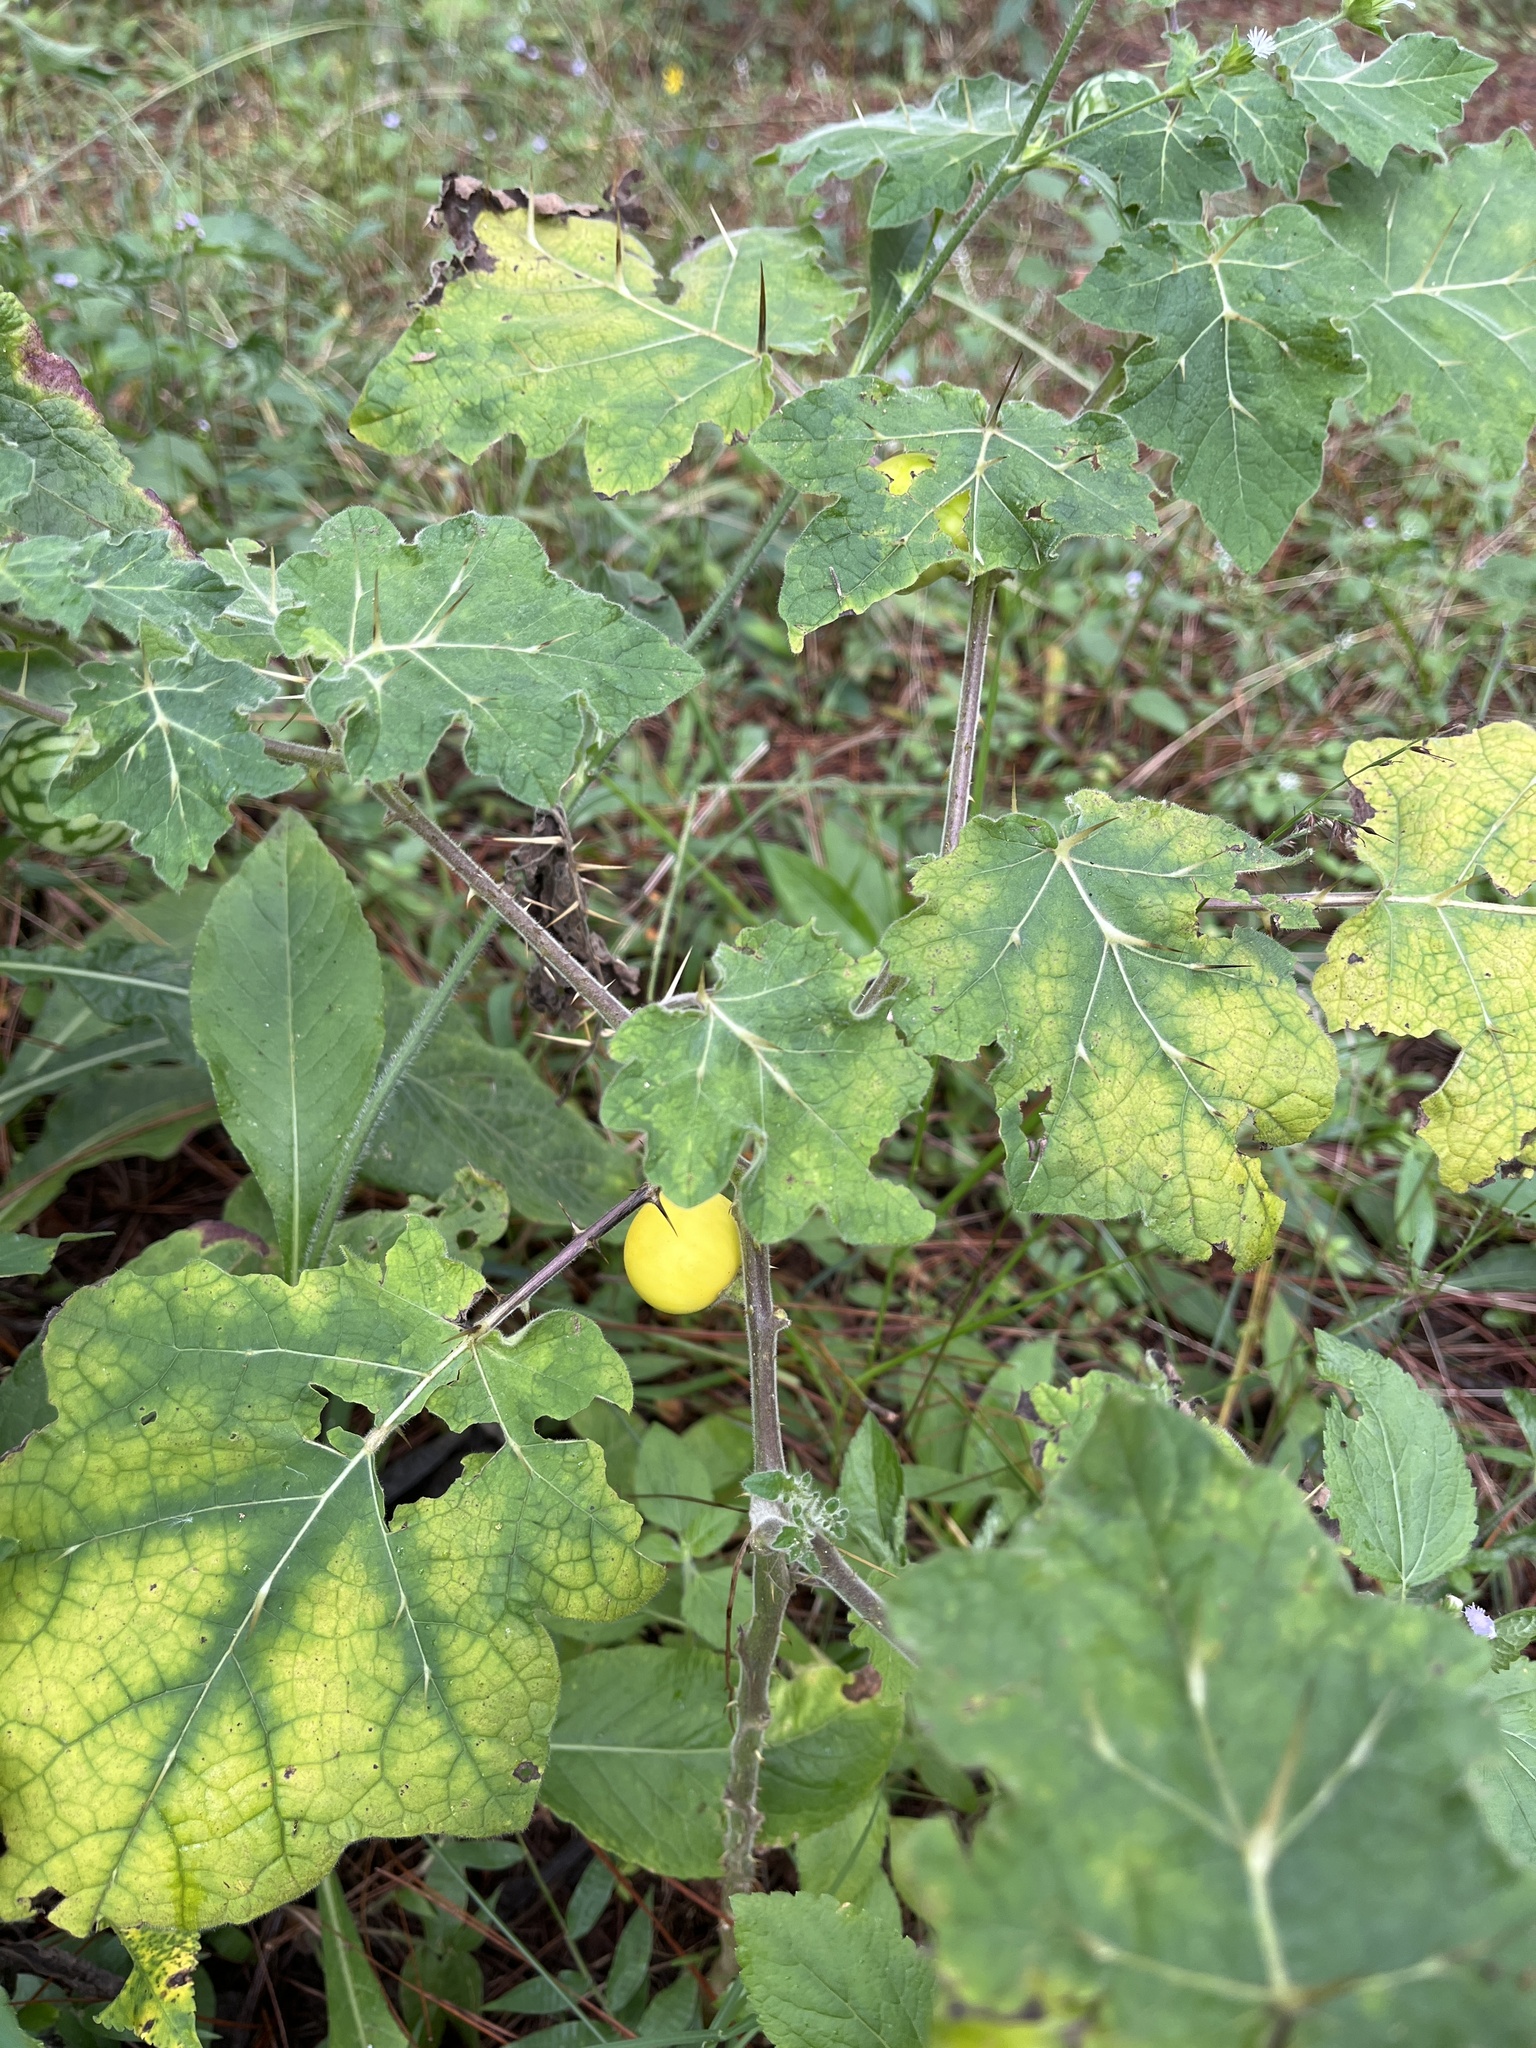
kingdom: Plantae
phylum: Tracheophyta
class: Magnoliopsida
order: Solanales
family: Solanaceae
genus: Solanum
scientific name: Solanum viarum
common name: Tropical soda apple
